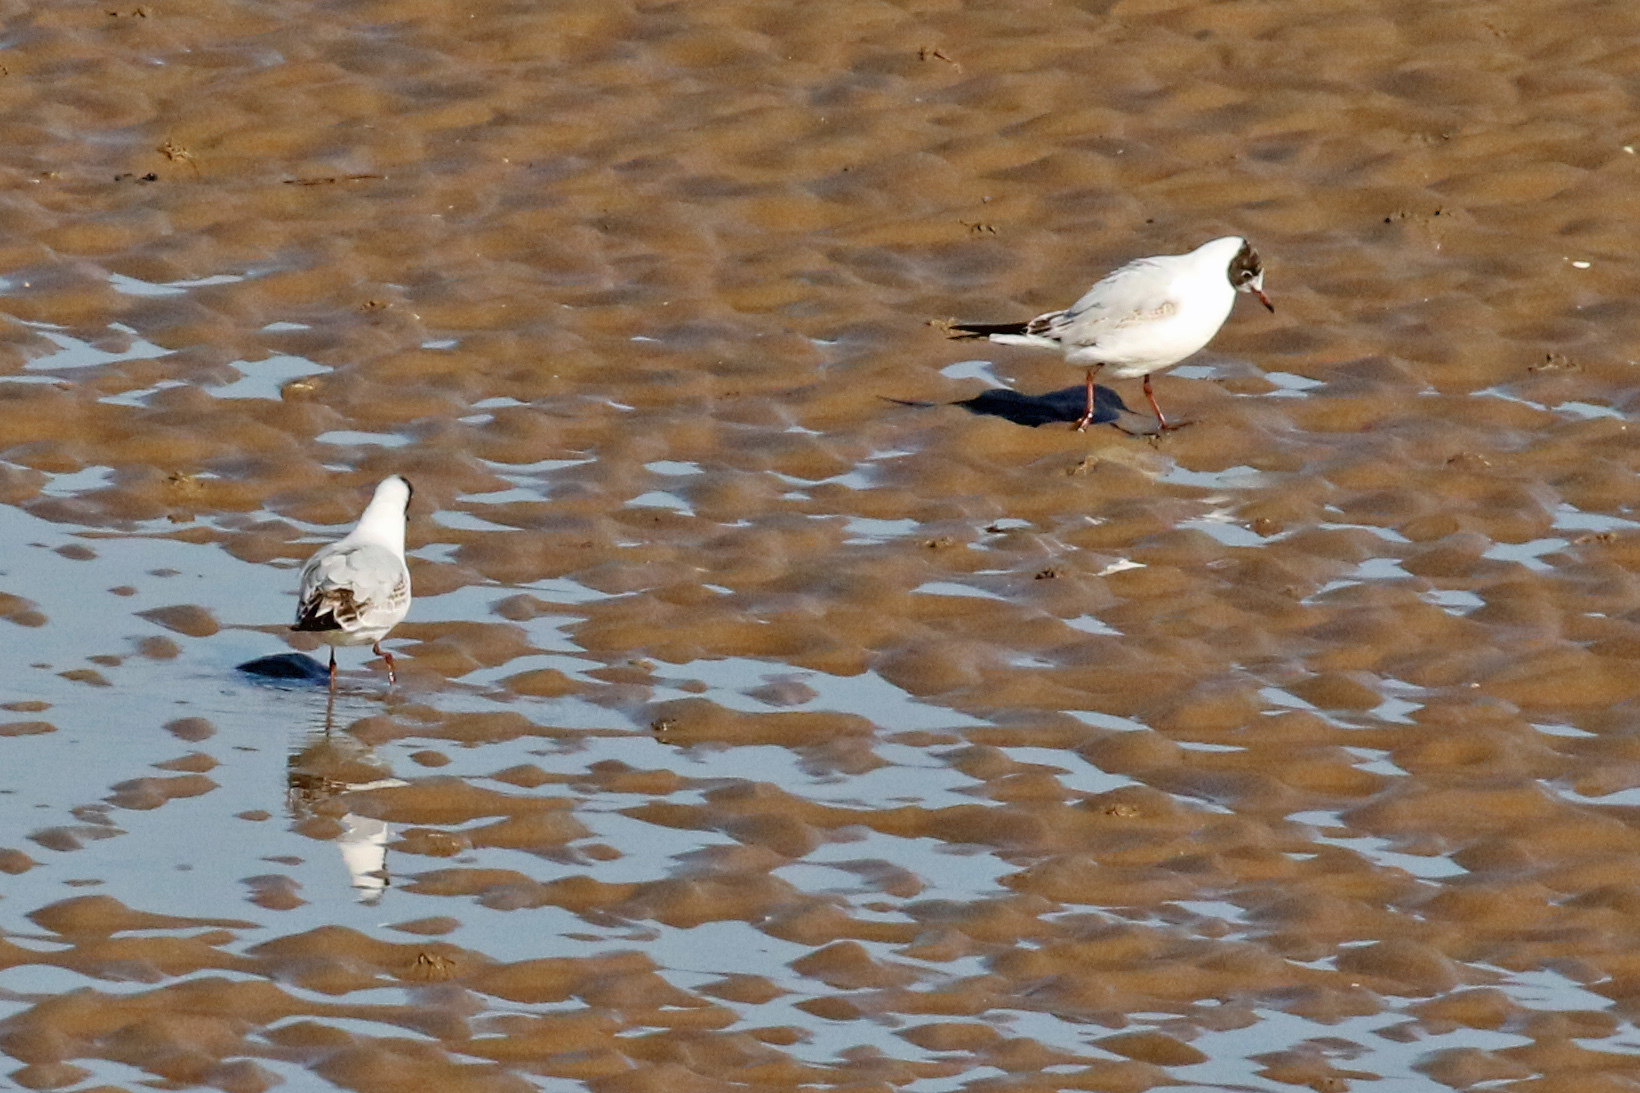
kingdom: Animalia
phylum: Chordata
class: Aves
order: Charadriiformes
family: Laridae
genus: Chroicocephalus
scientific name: Chroicocephalus ridibundus
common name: Black-headed gull
